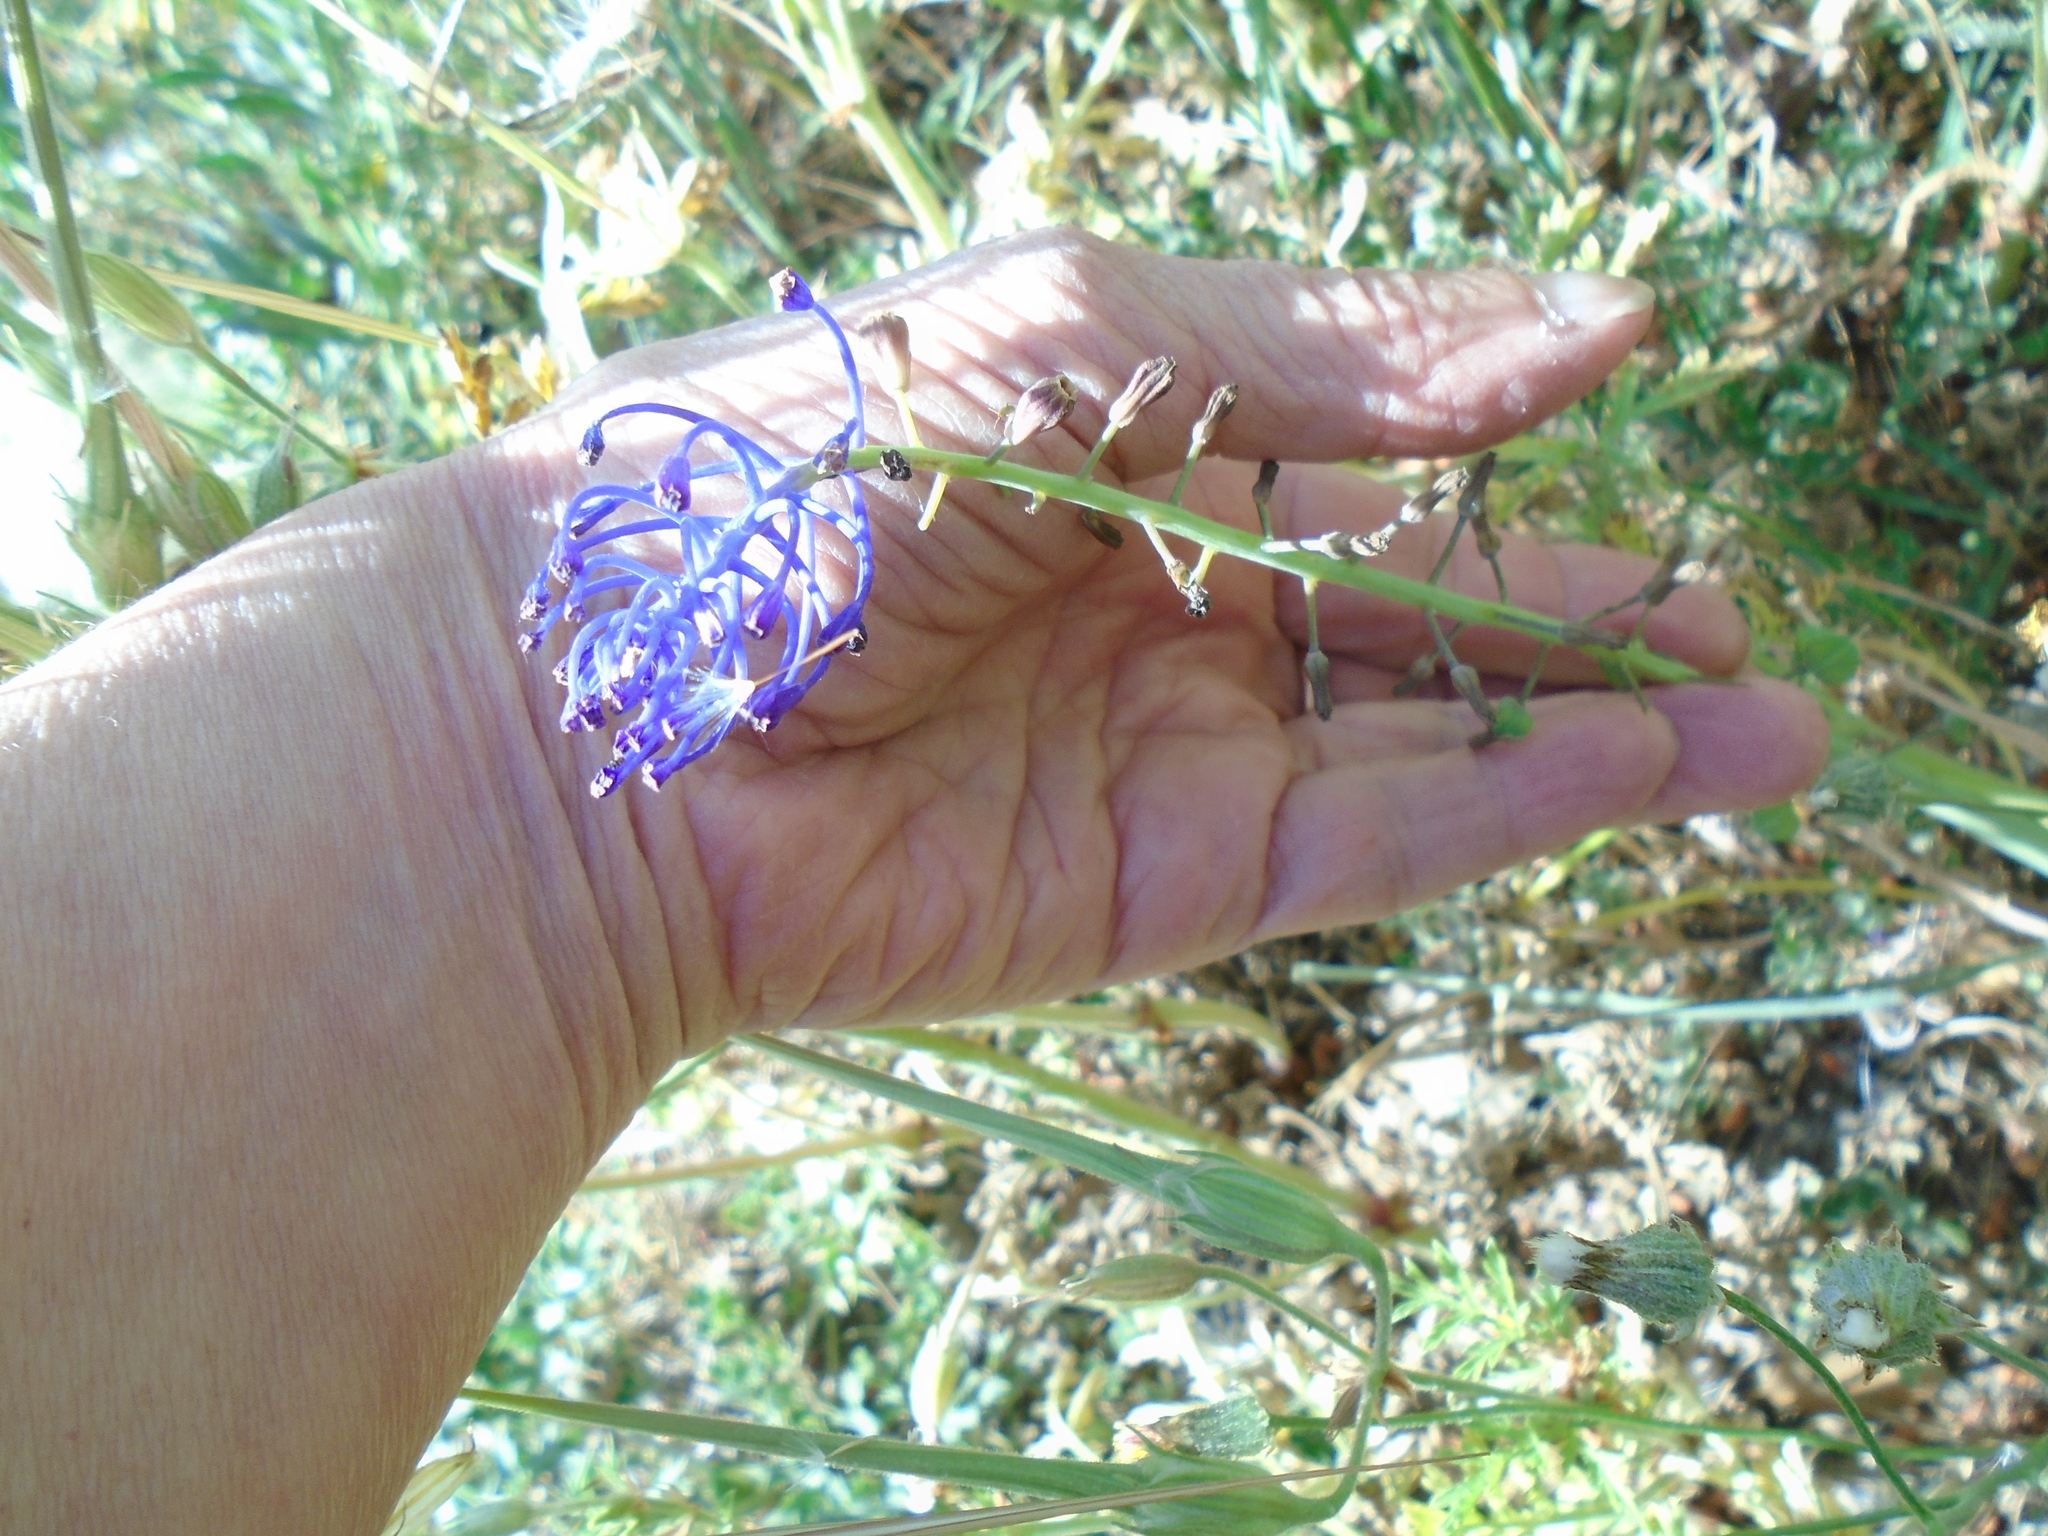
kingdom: Plantae
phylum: Tracheophyta
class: Liliopsida
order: Asparagales
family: Asparagaceae
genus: Muscari
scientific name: Muscari comosum
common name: Tassel hyacinth
